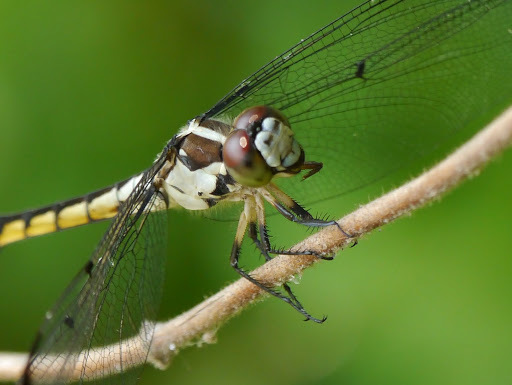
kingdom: Animalia
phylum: Arthropoda
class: Insecta
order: Odonata
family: Libellulidae
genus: Libellula
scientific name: Libellula vibrans
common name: Great blue skimmer
